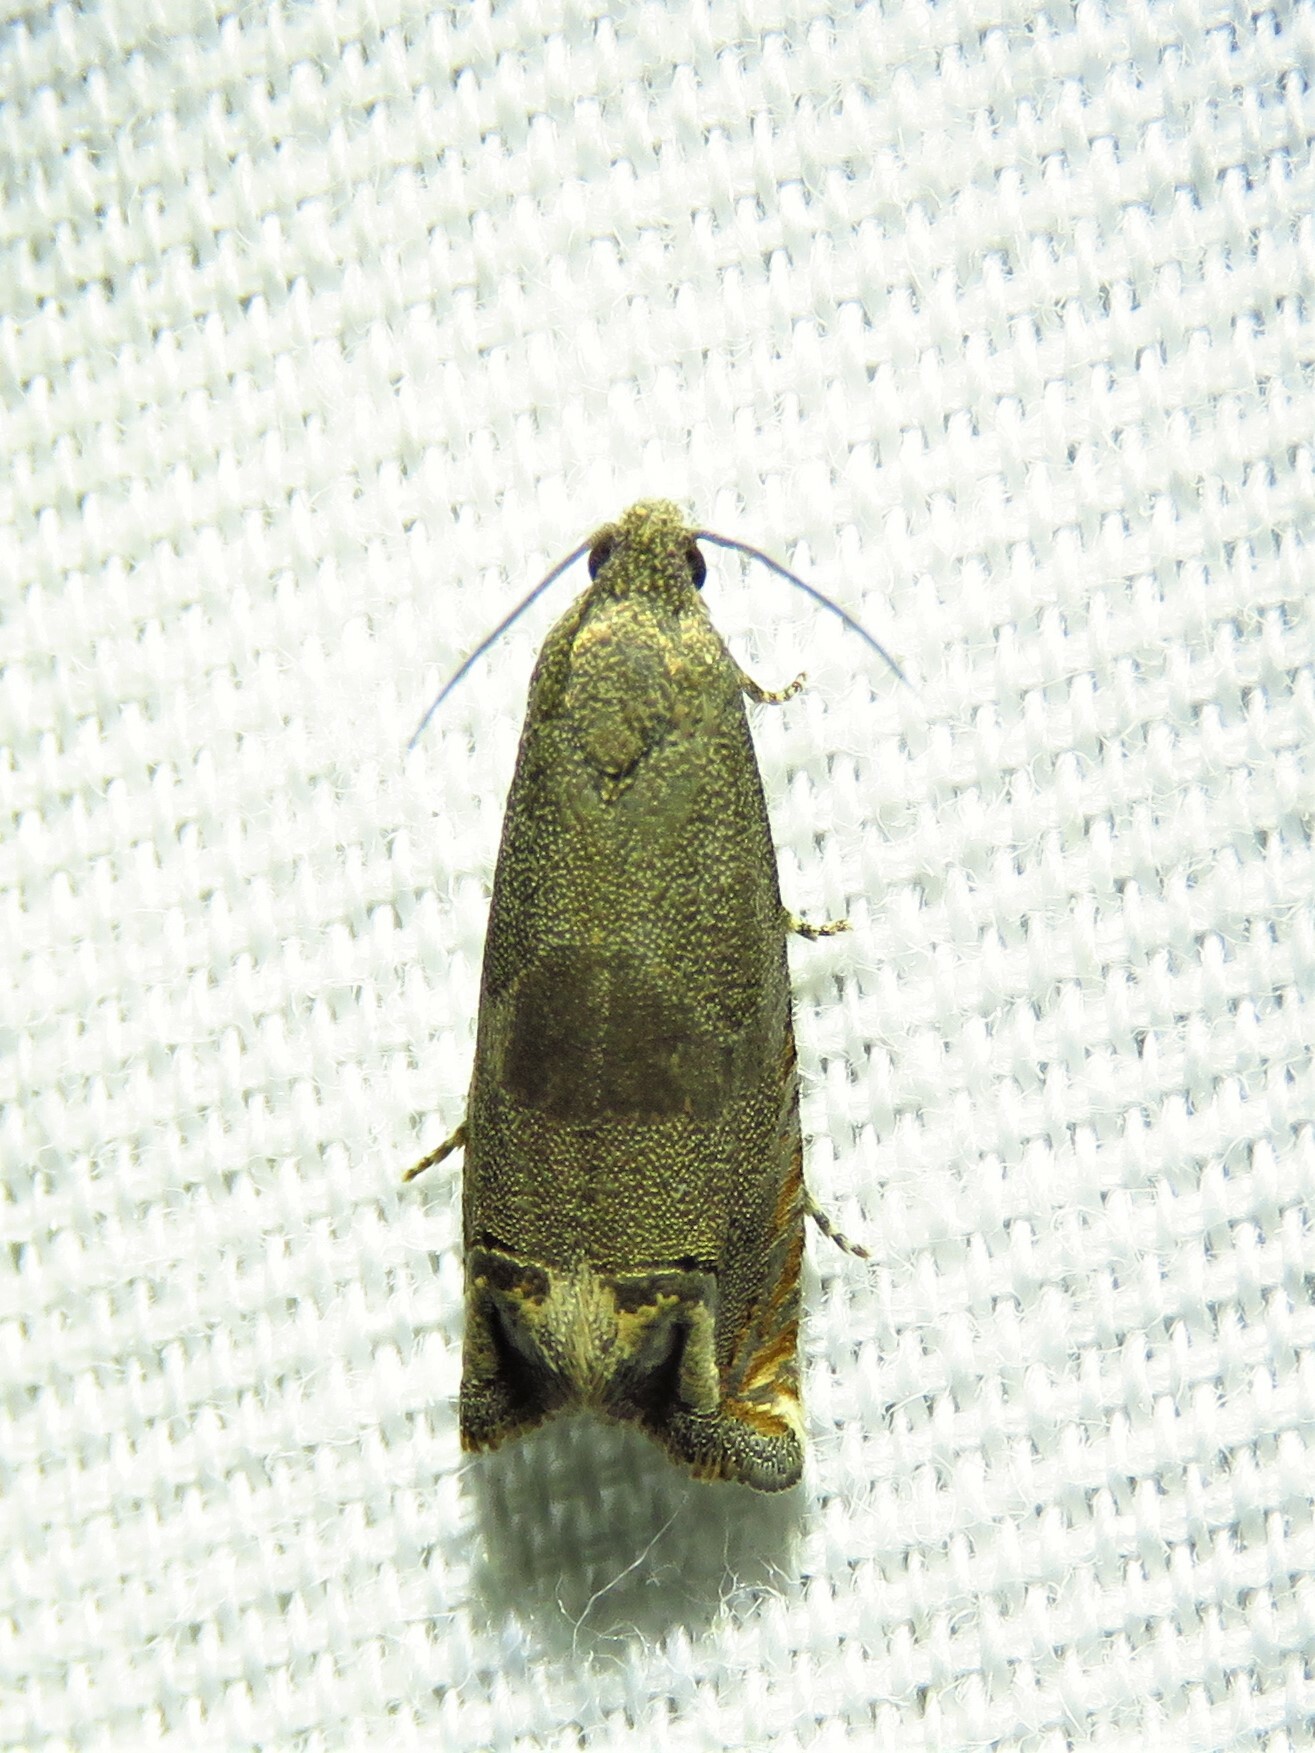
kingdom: Animalia
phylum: Arthropoda
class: Insecta
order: Lepidoptera
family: Tortricidae
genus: Epiblema
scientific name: Epiblema strenuana
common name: Ragweed borer moth
